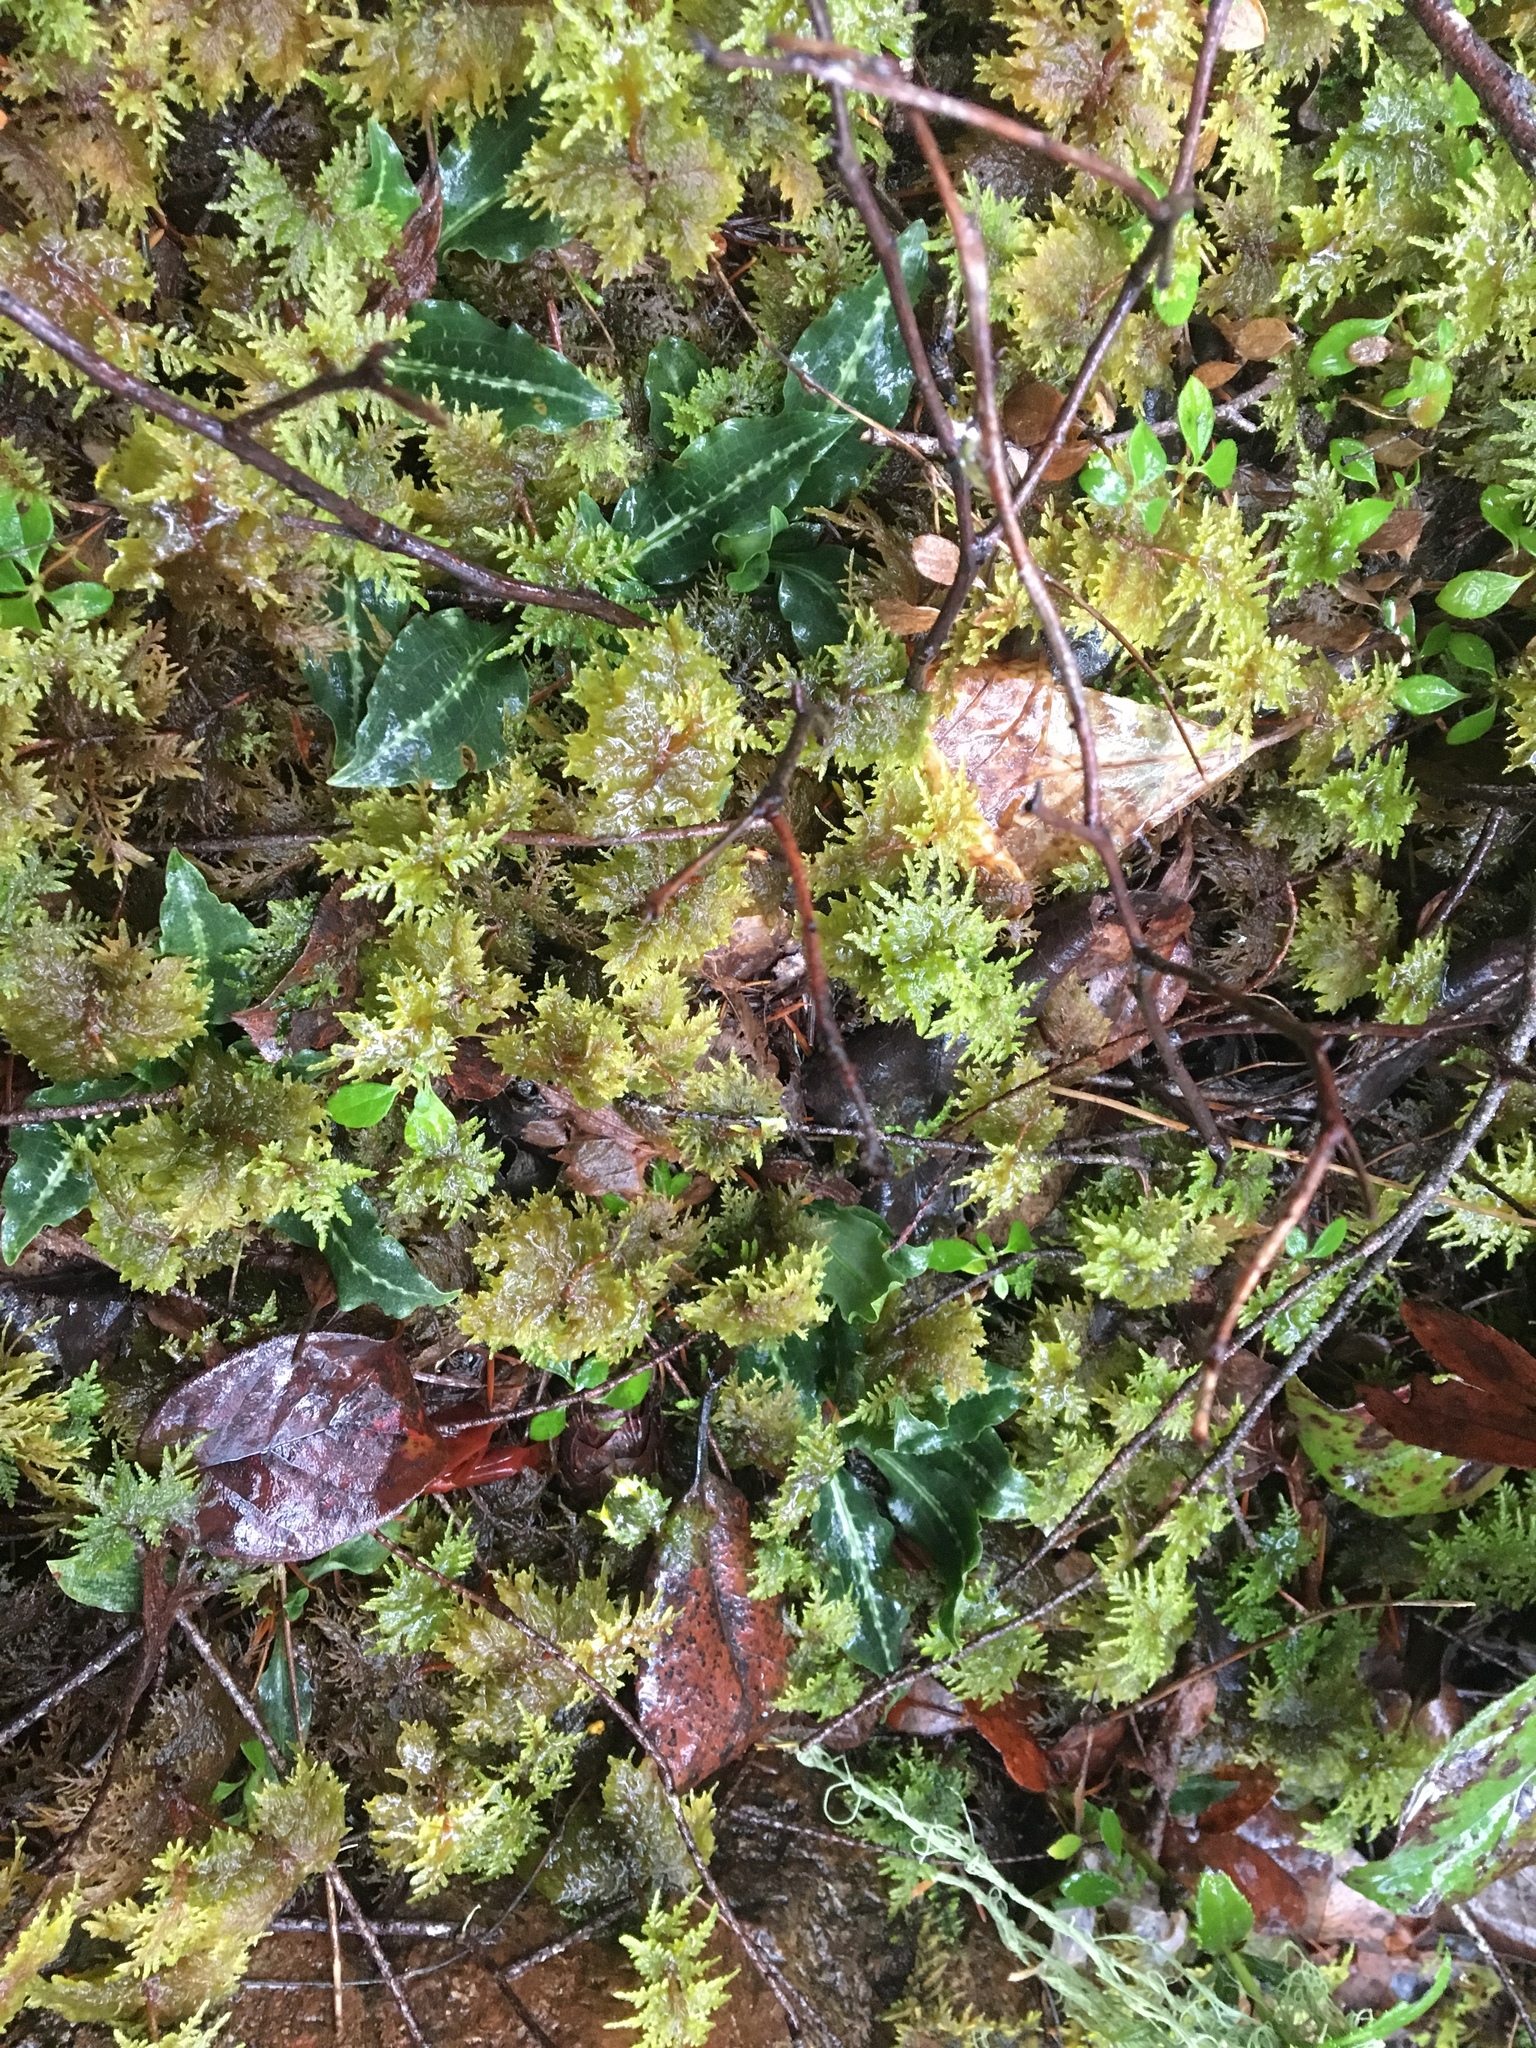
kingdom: Plantae
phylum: Tracheophyta
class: Liliopsida
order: Asparagales
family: Orchidaceae
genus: Goodyera
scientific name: Goodyera oblongifolia
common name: Giant rattlesnake-plantain
